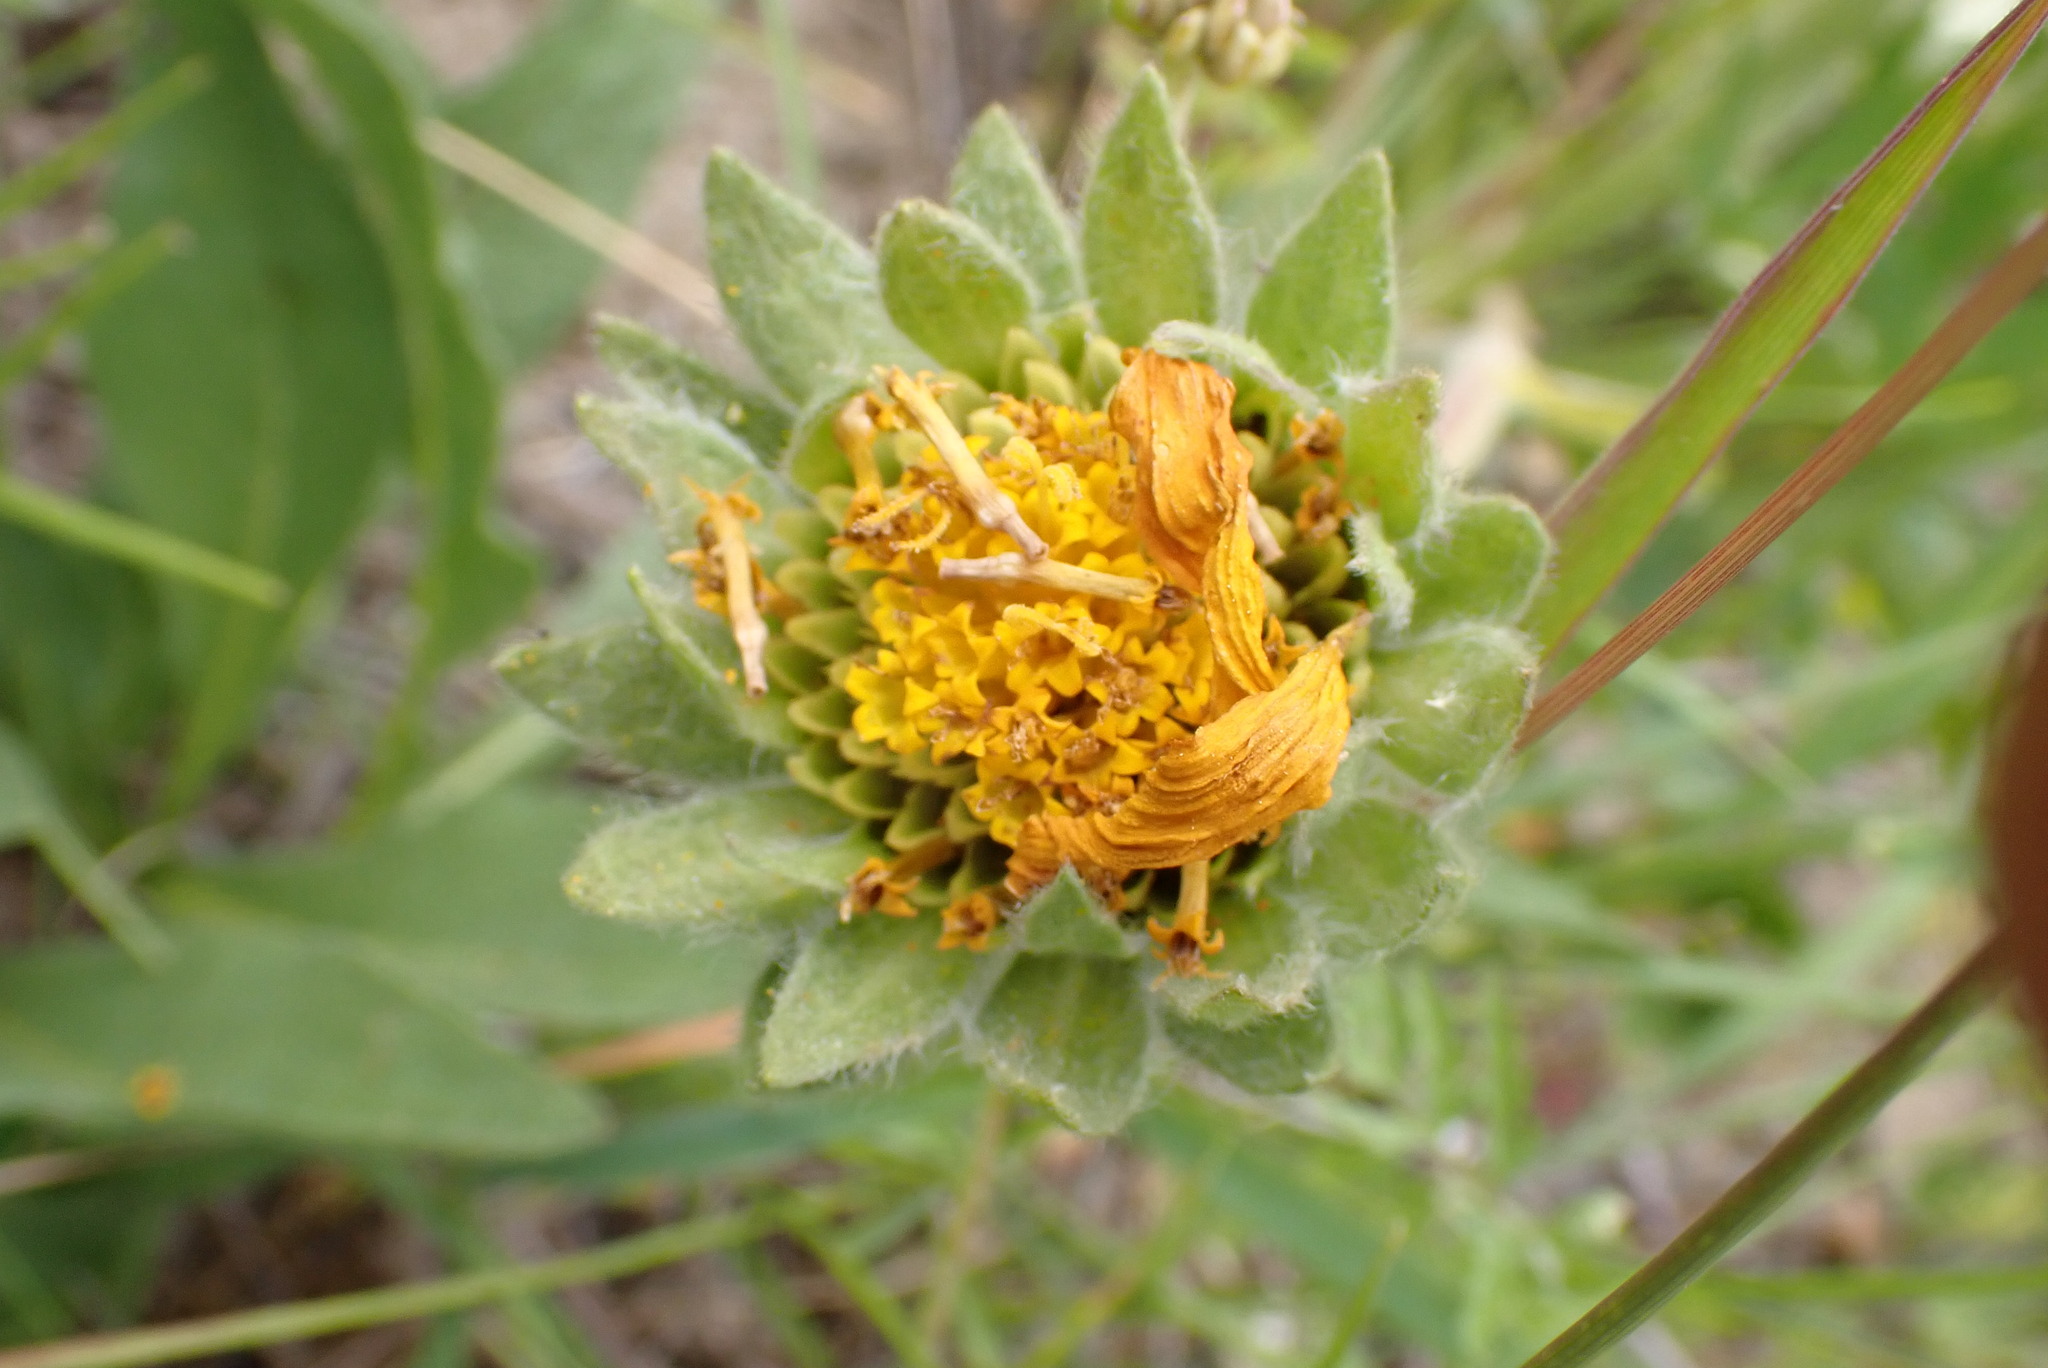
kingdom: Plantae
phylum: Tracheophyta
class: Magnoliopsida
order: Asterales
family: Asteraceae
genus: Wyethia
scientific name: Wyethia angustifolia
